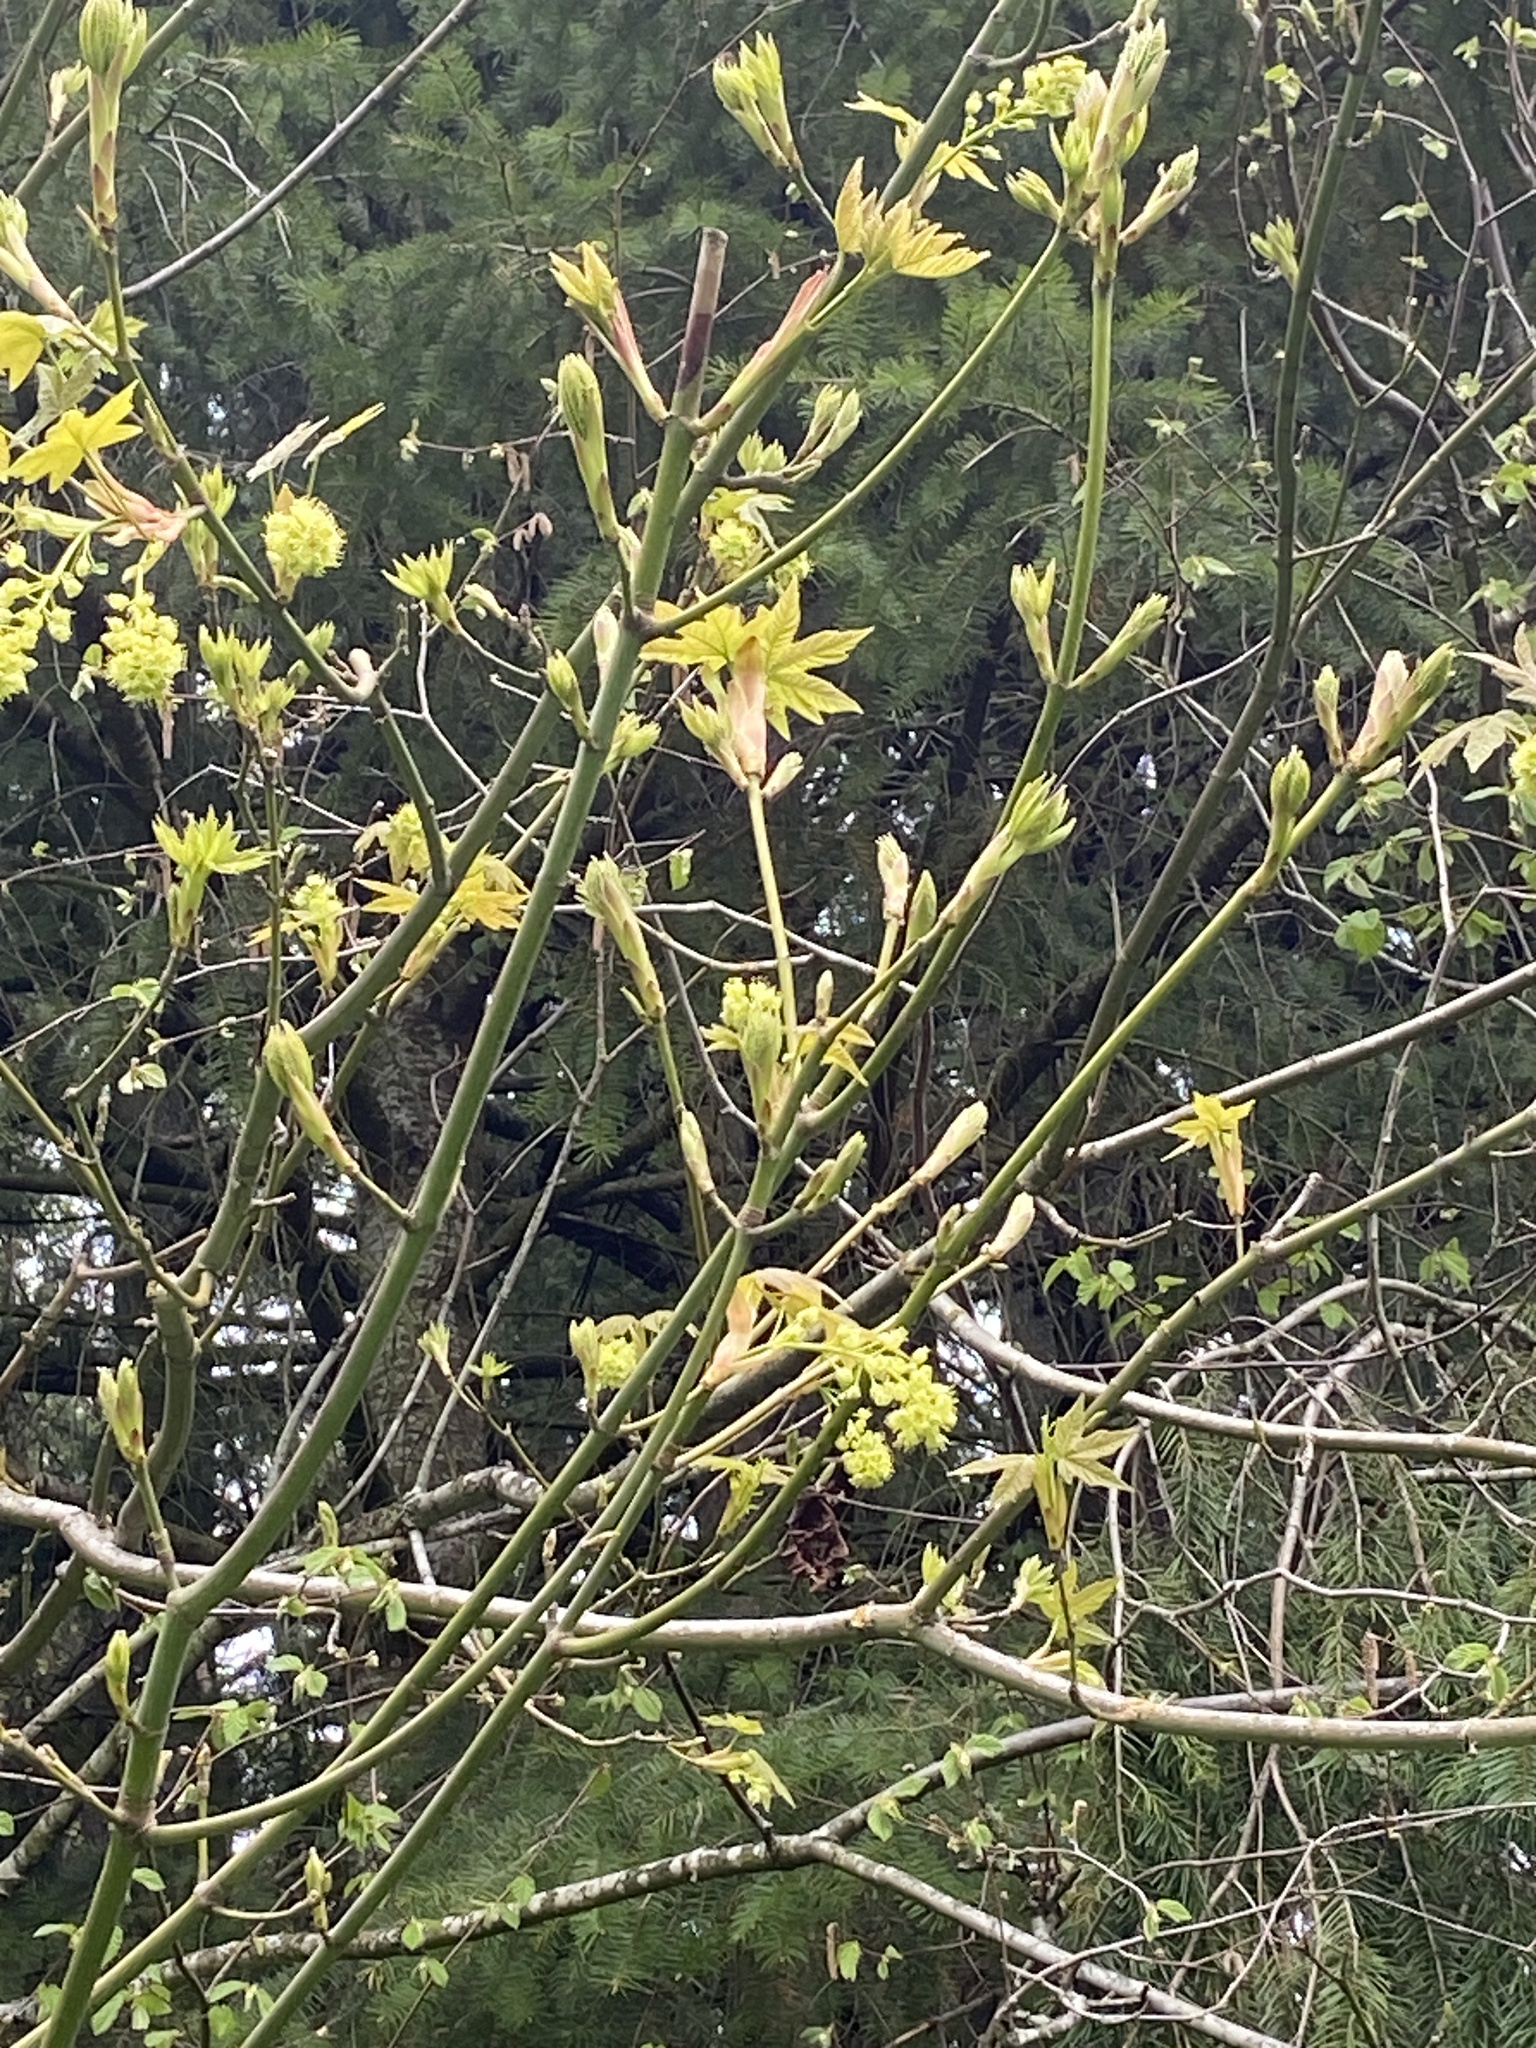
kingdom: Plantae
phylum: Tracheophyta
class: Magnoliopsida
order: Sapindales
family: Sapindaceae
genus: Acer
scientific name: Acer macrophyllum
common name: Oregon maple
